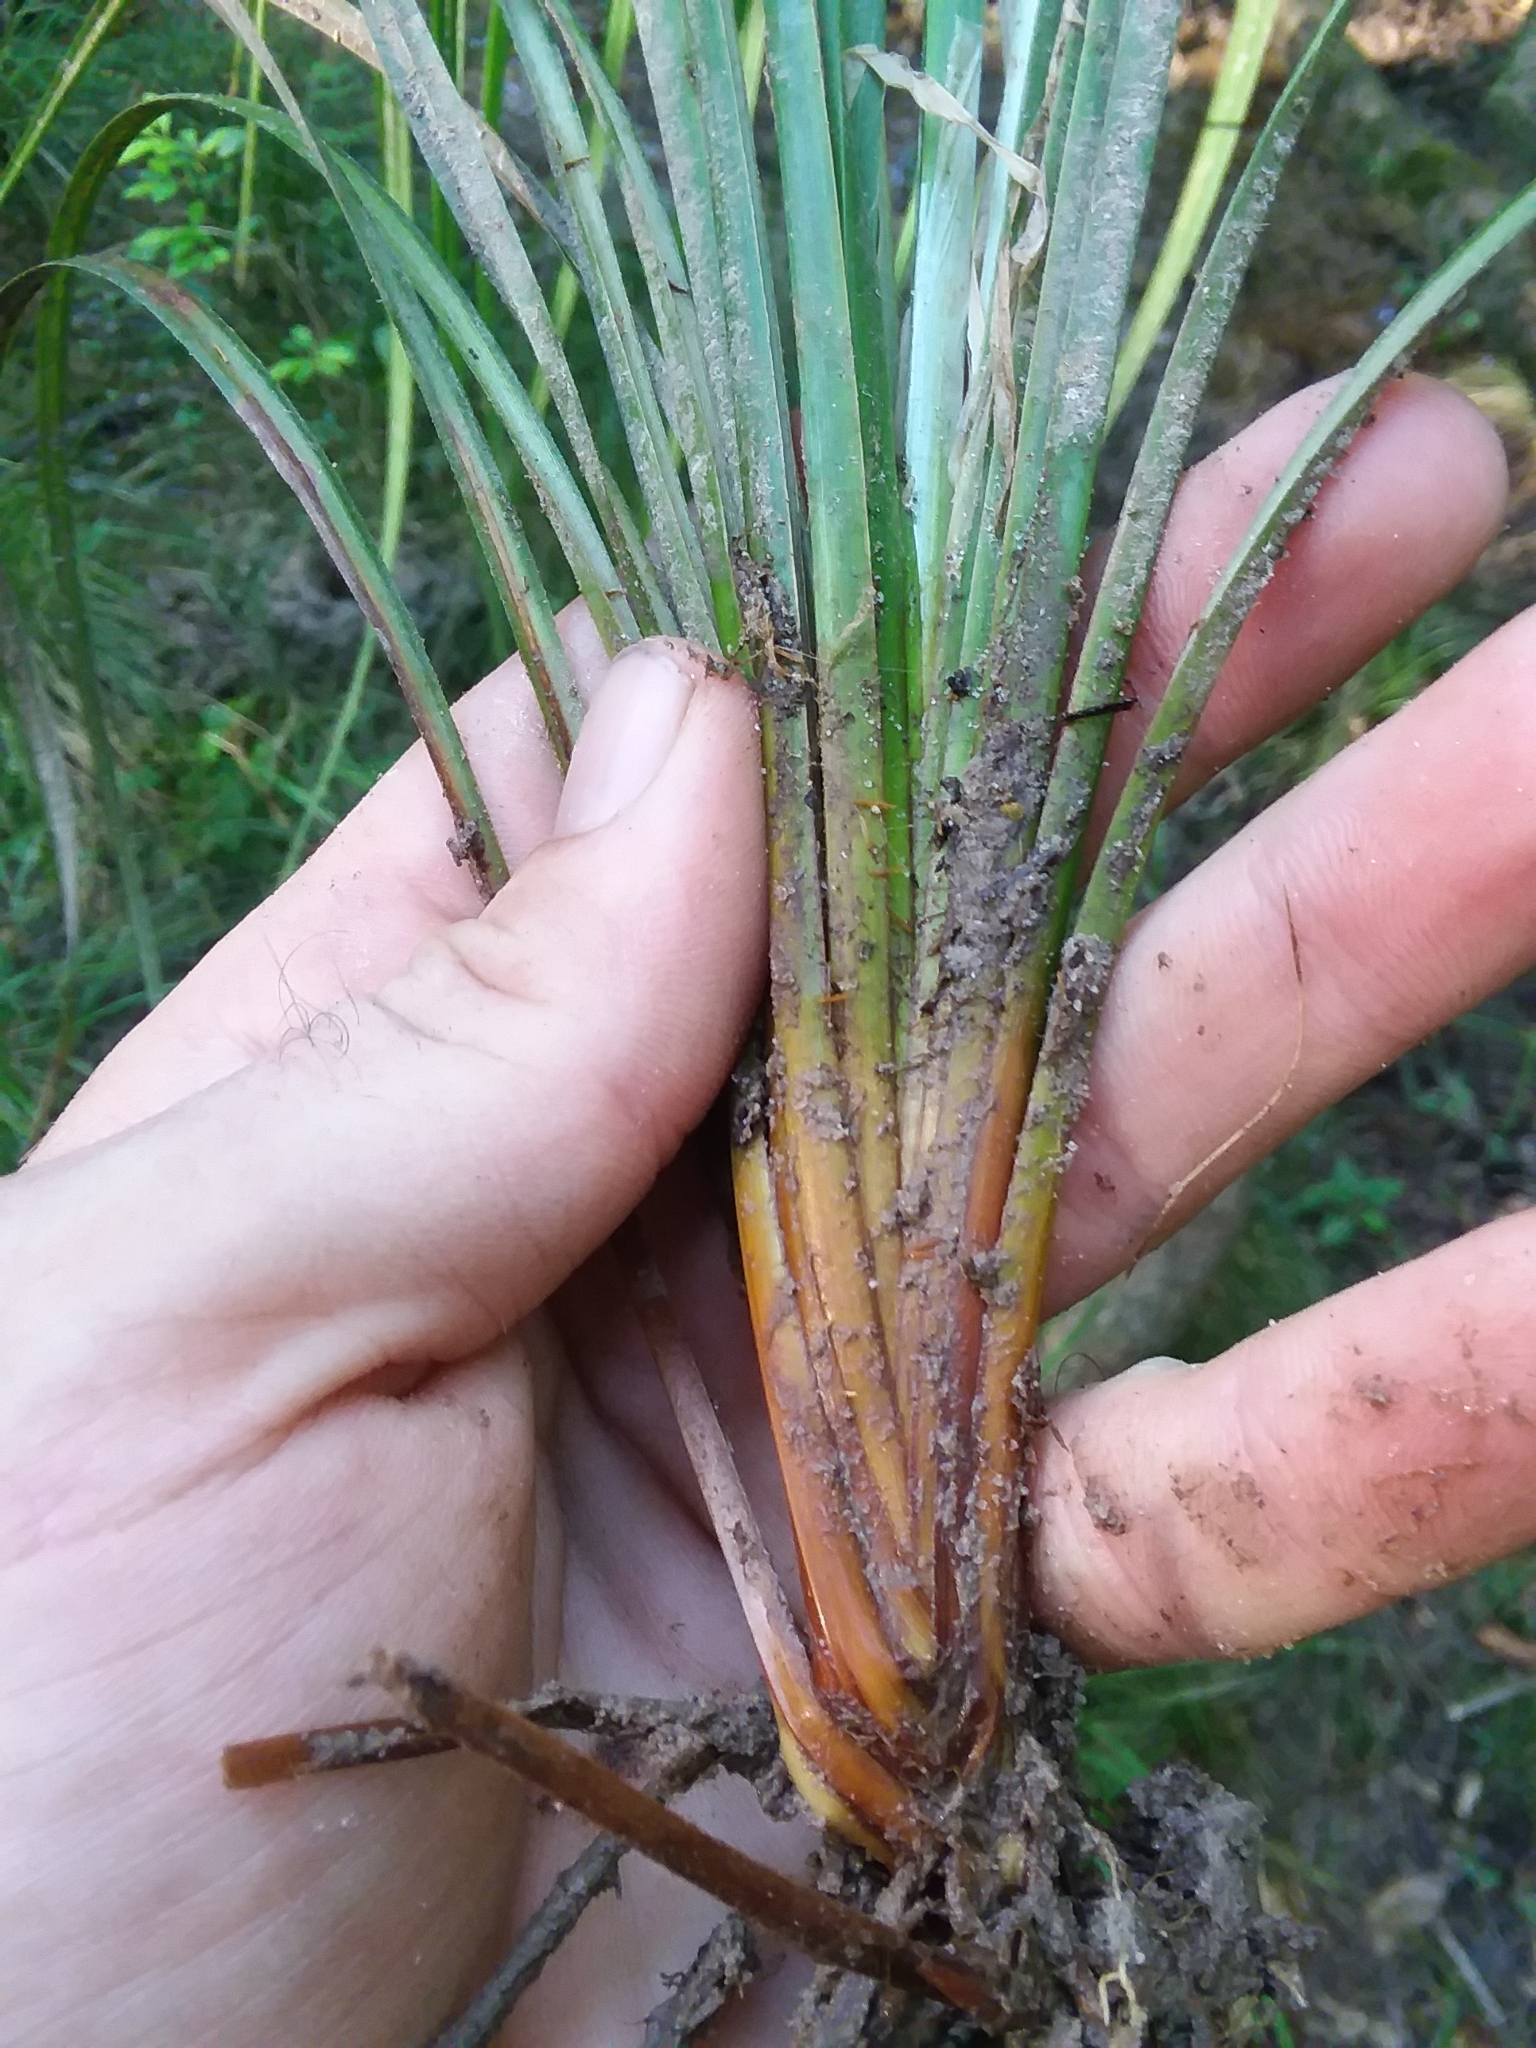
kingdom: Plantae
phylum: Tracheophyta
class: Liliopsida
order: Poales
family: Cyperaceae
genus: Carex
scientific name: Carex joorii
